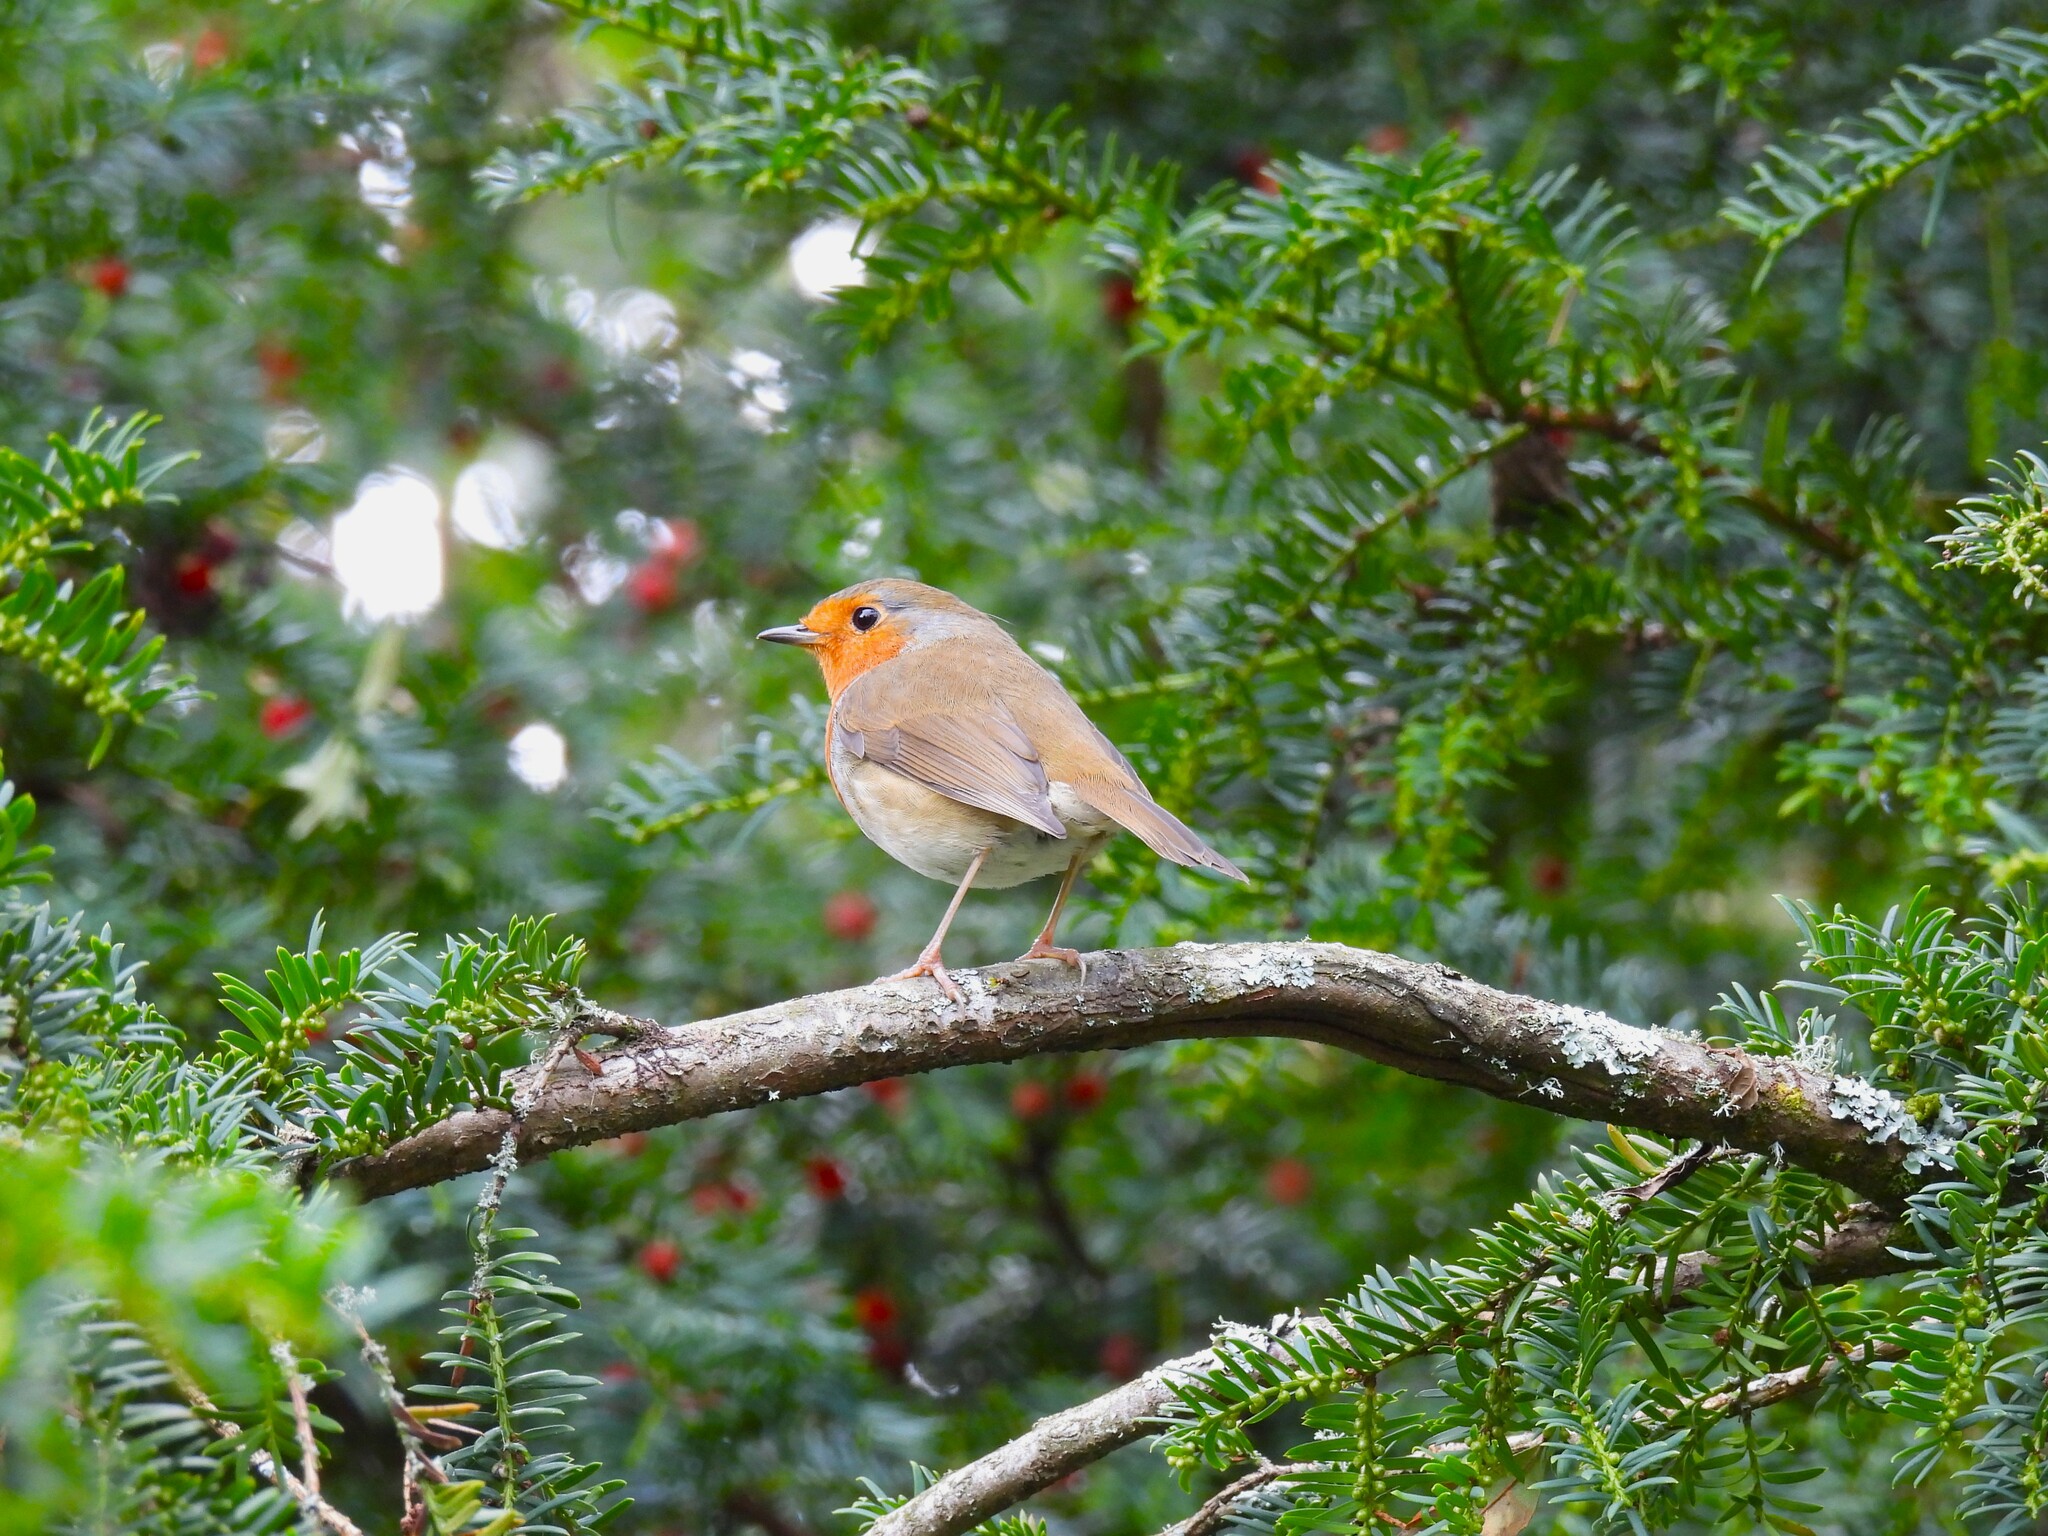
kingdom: Animalia
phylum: Chordata
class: Aves
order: Passeriformes
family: Muscicapidae
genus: Erithacus
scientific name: Erithacus rubecula
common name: European robin
